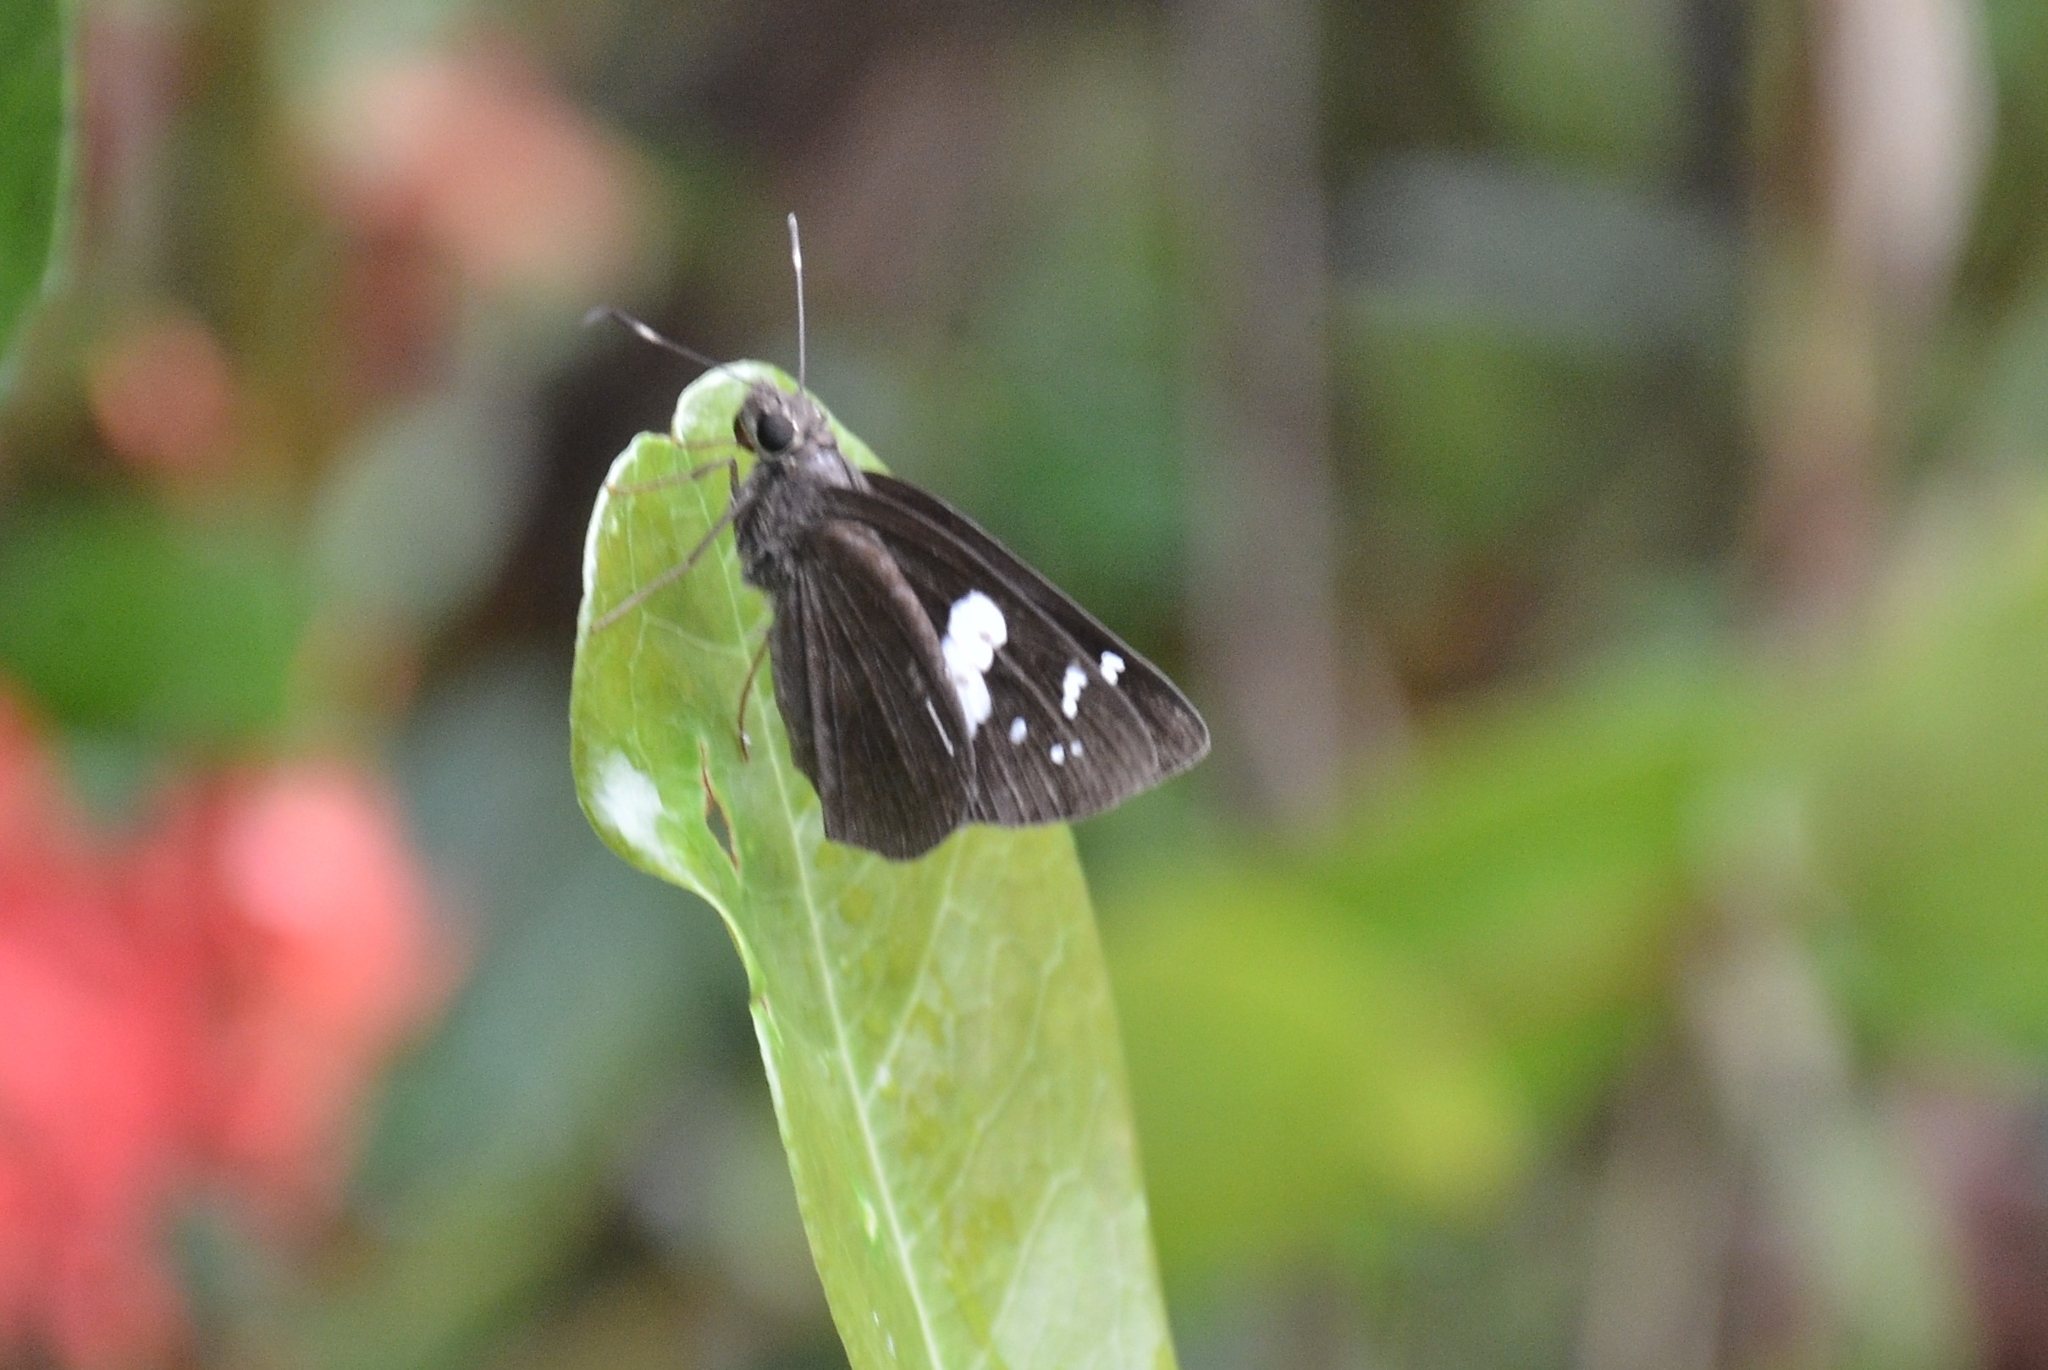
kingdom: Animalia
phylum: Arthropoda
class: Insecta
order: Lepidoptera
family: Hesperiidae
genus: Notocrypta
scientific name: Notocrypta curvifascia
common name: Restricted demon
